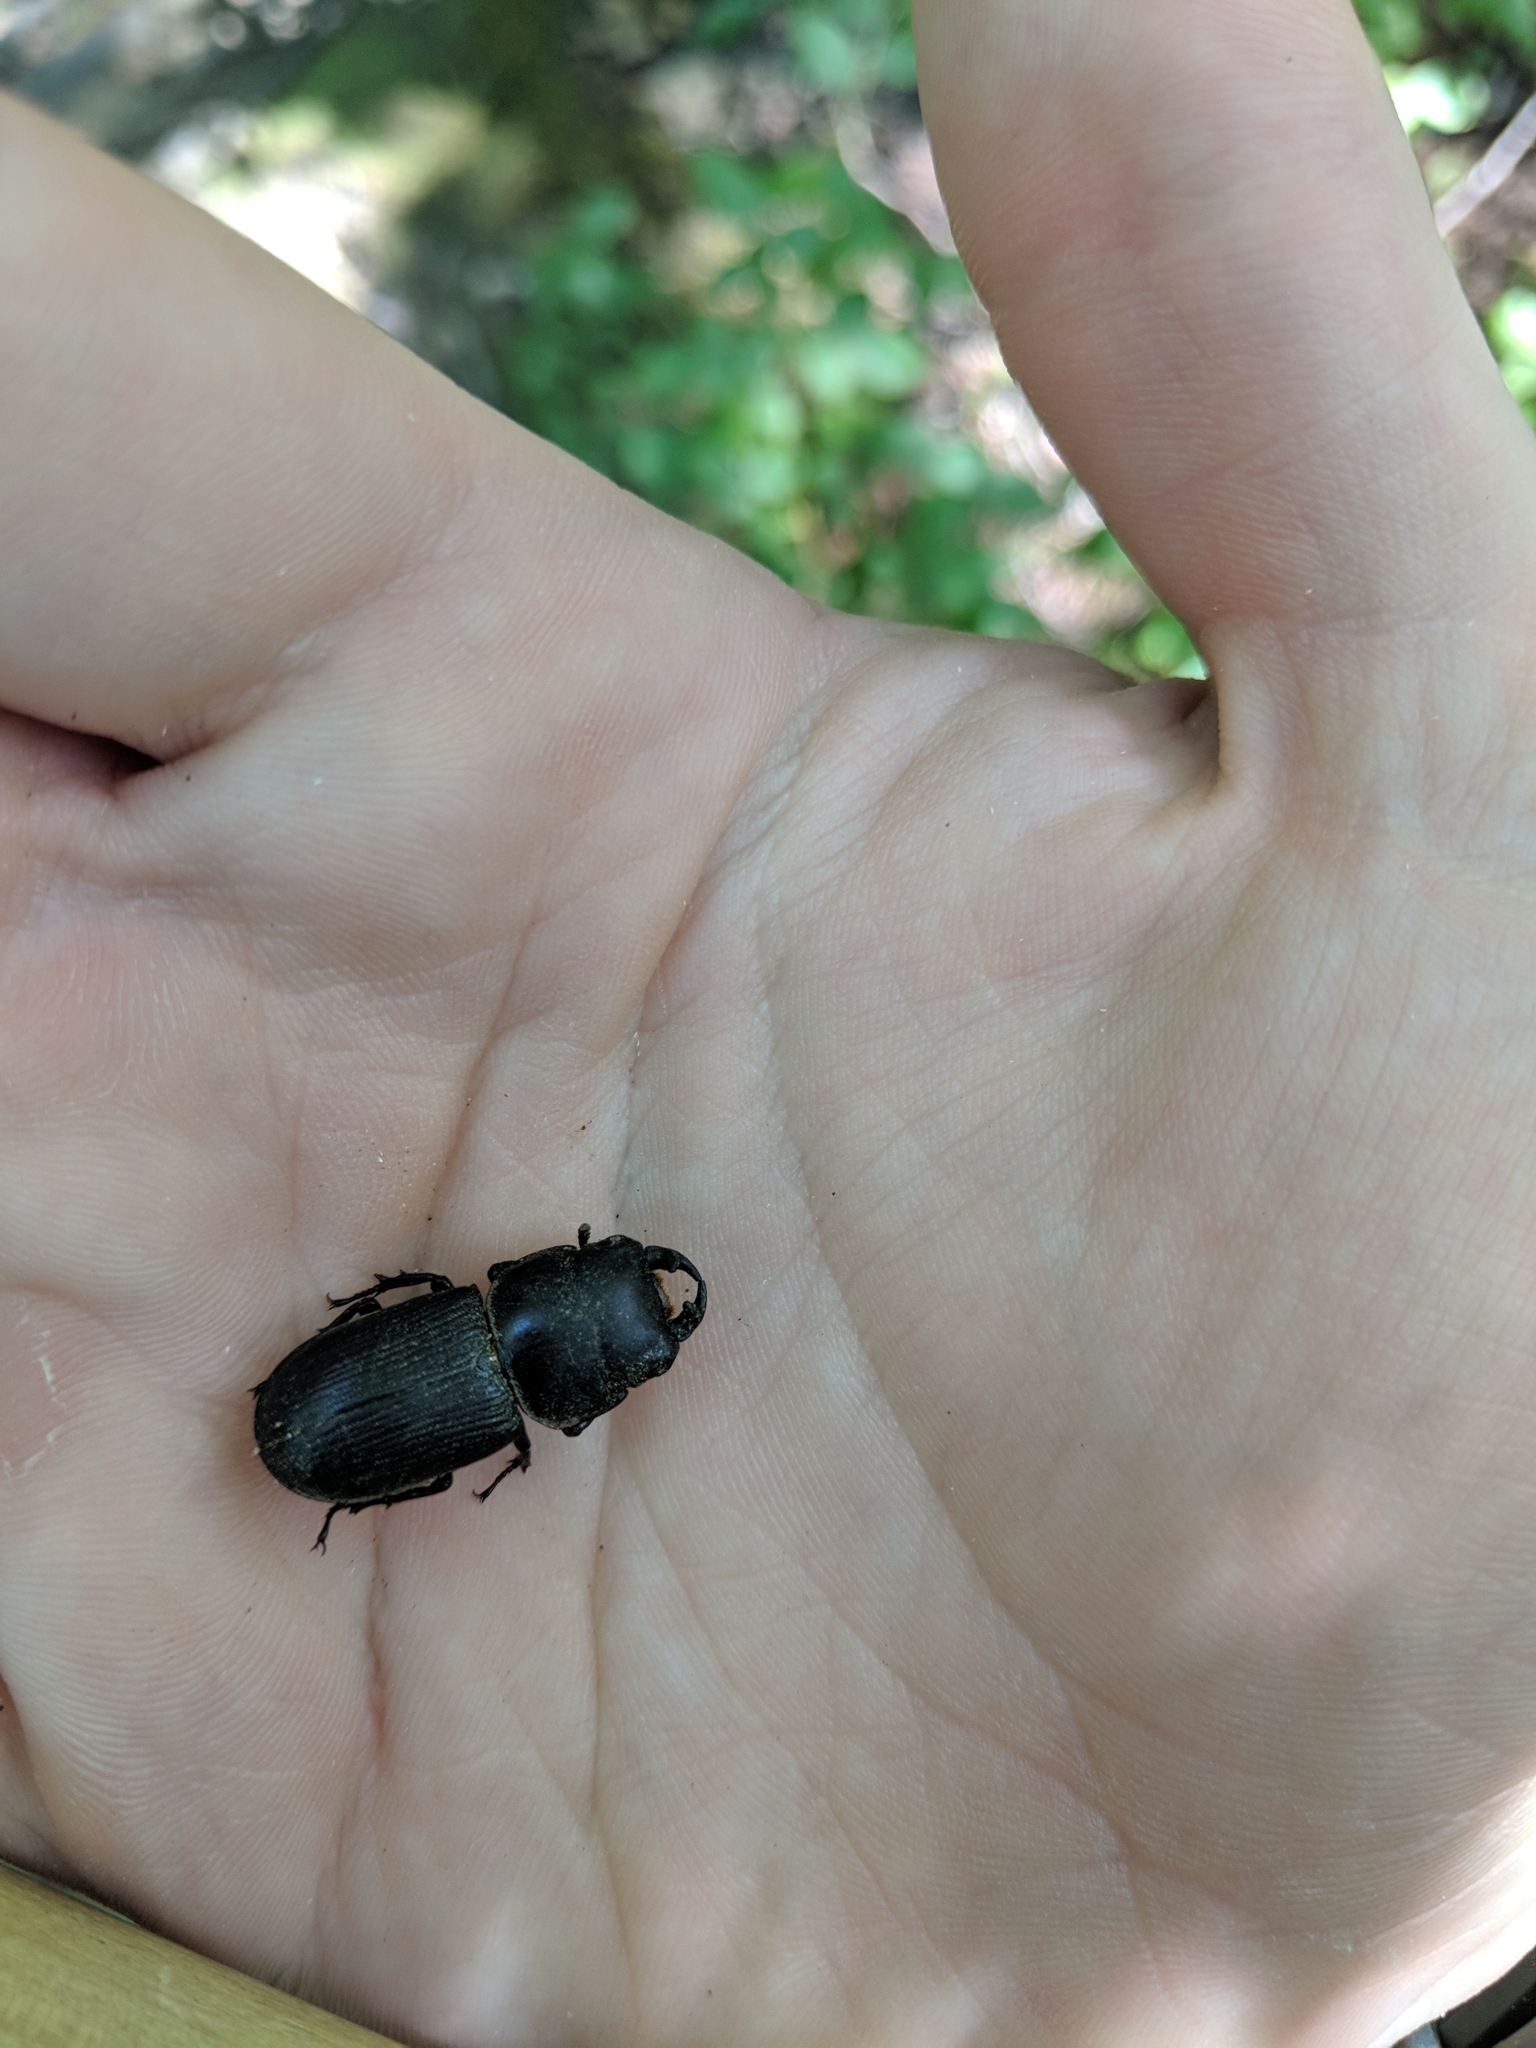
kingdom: Animalia
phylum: Arthropoda
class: Insecta
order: Coleoptera
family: Lucanidae
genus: Dorcus
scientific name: Dorcus parallelus
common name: Antelope beetle
